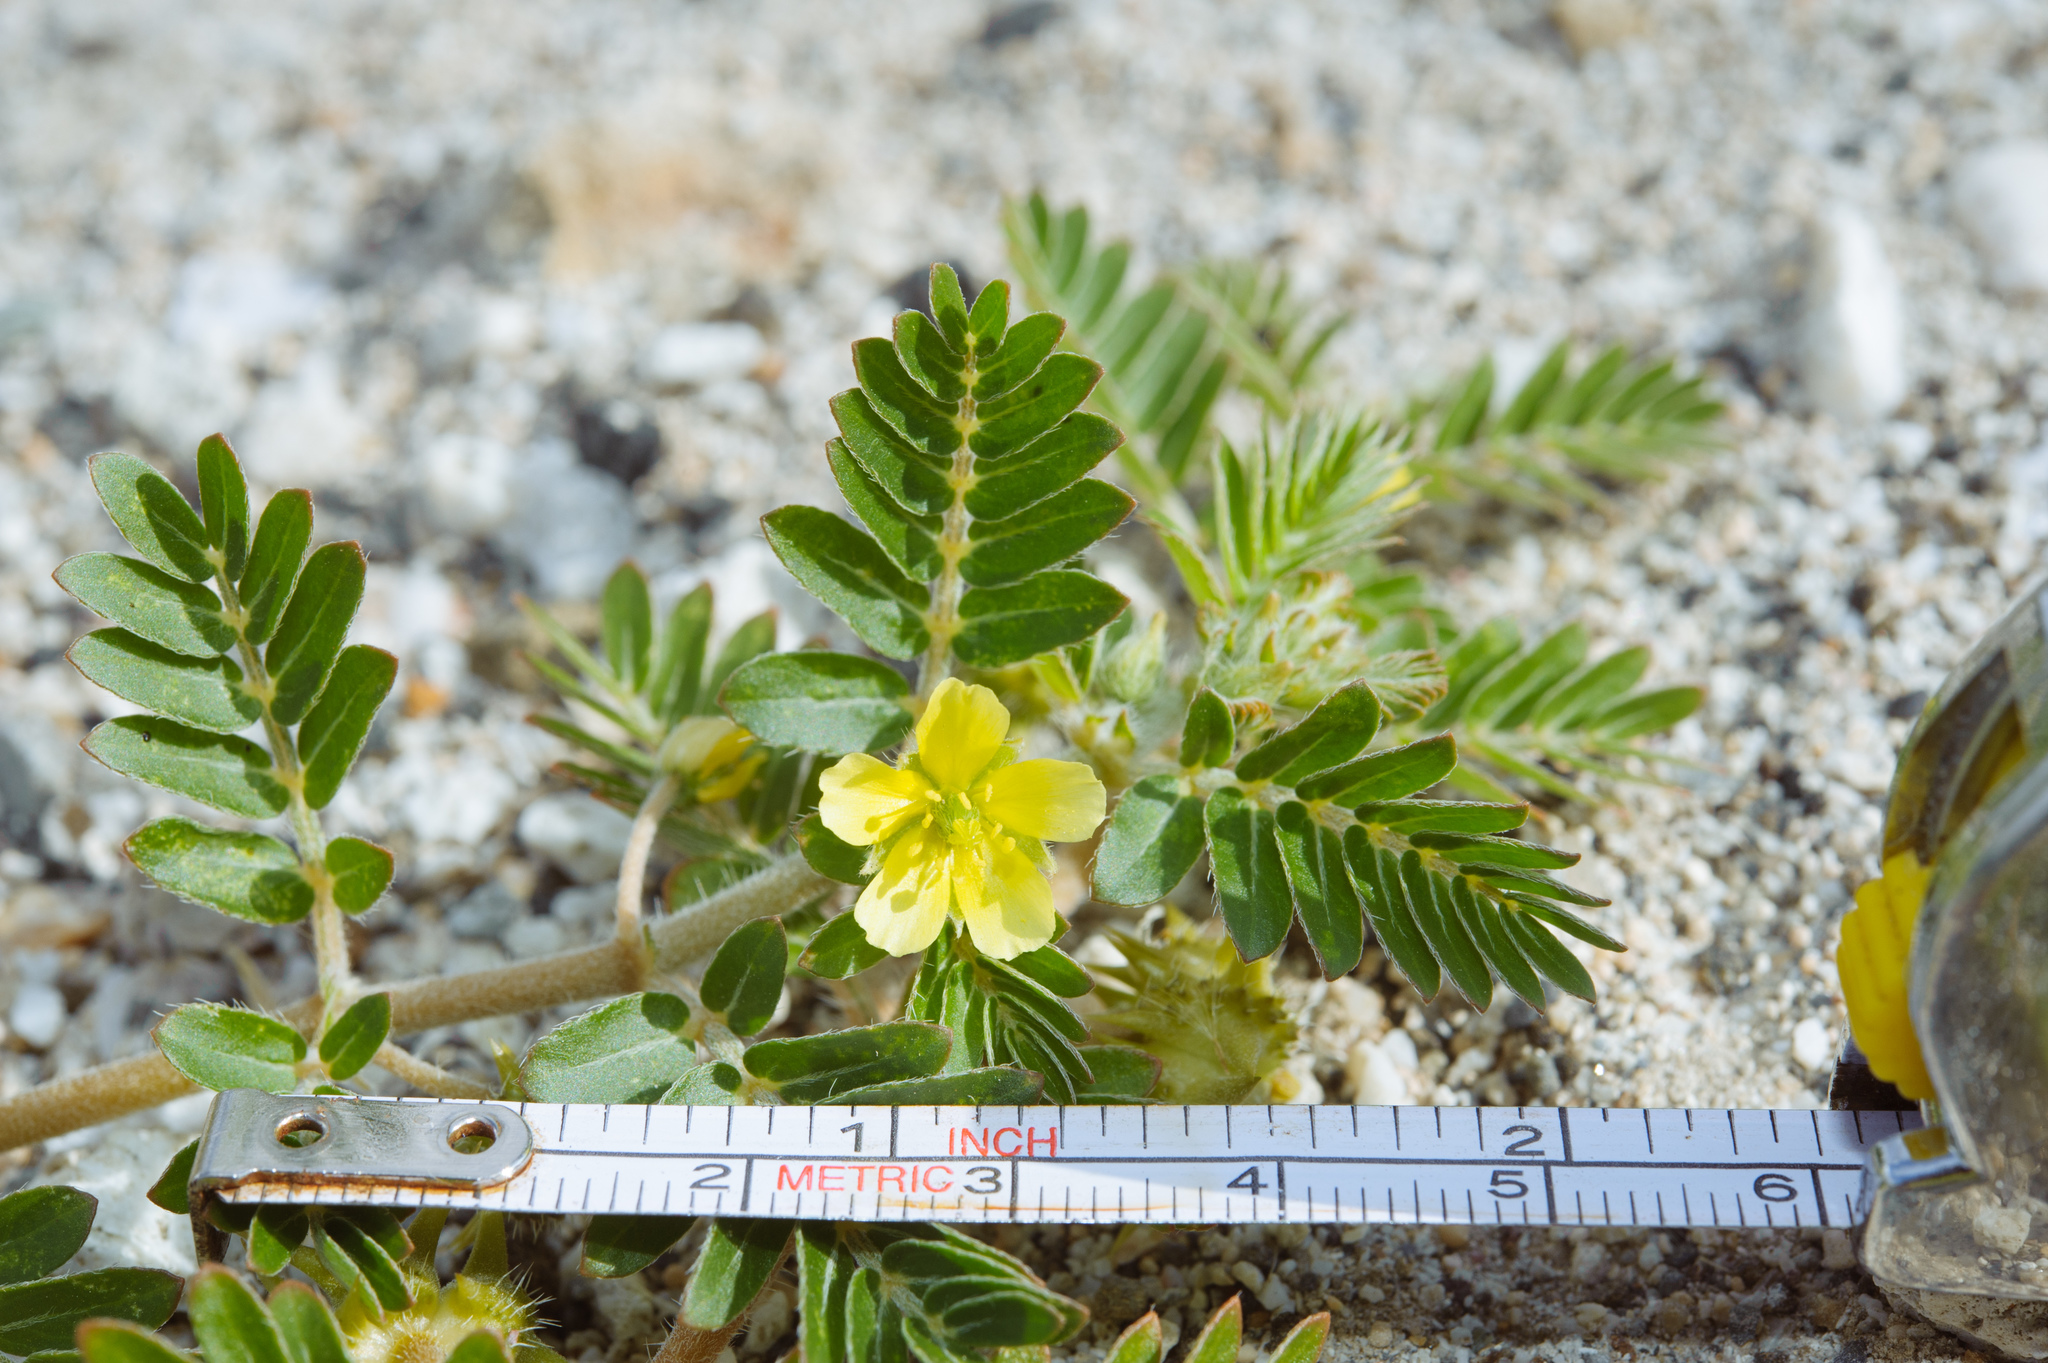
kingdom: Plantae
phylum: Tracheophyta
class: Magnoliopsida
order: Zygophyllales
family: Zygophyllaceae
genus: Tribulus
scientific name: Tribulus terrestris
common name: Puncturevine
